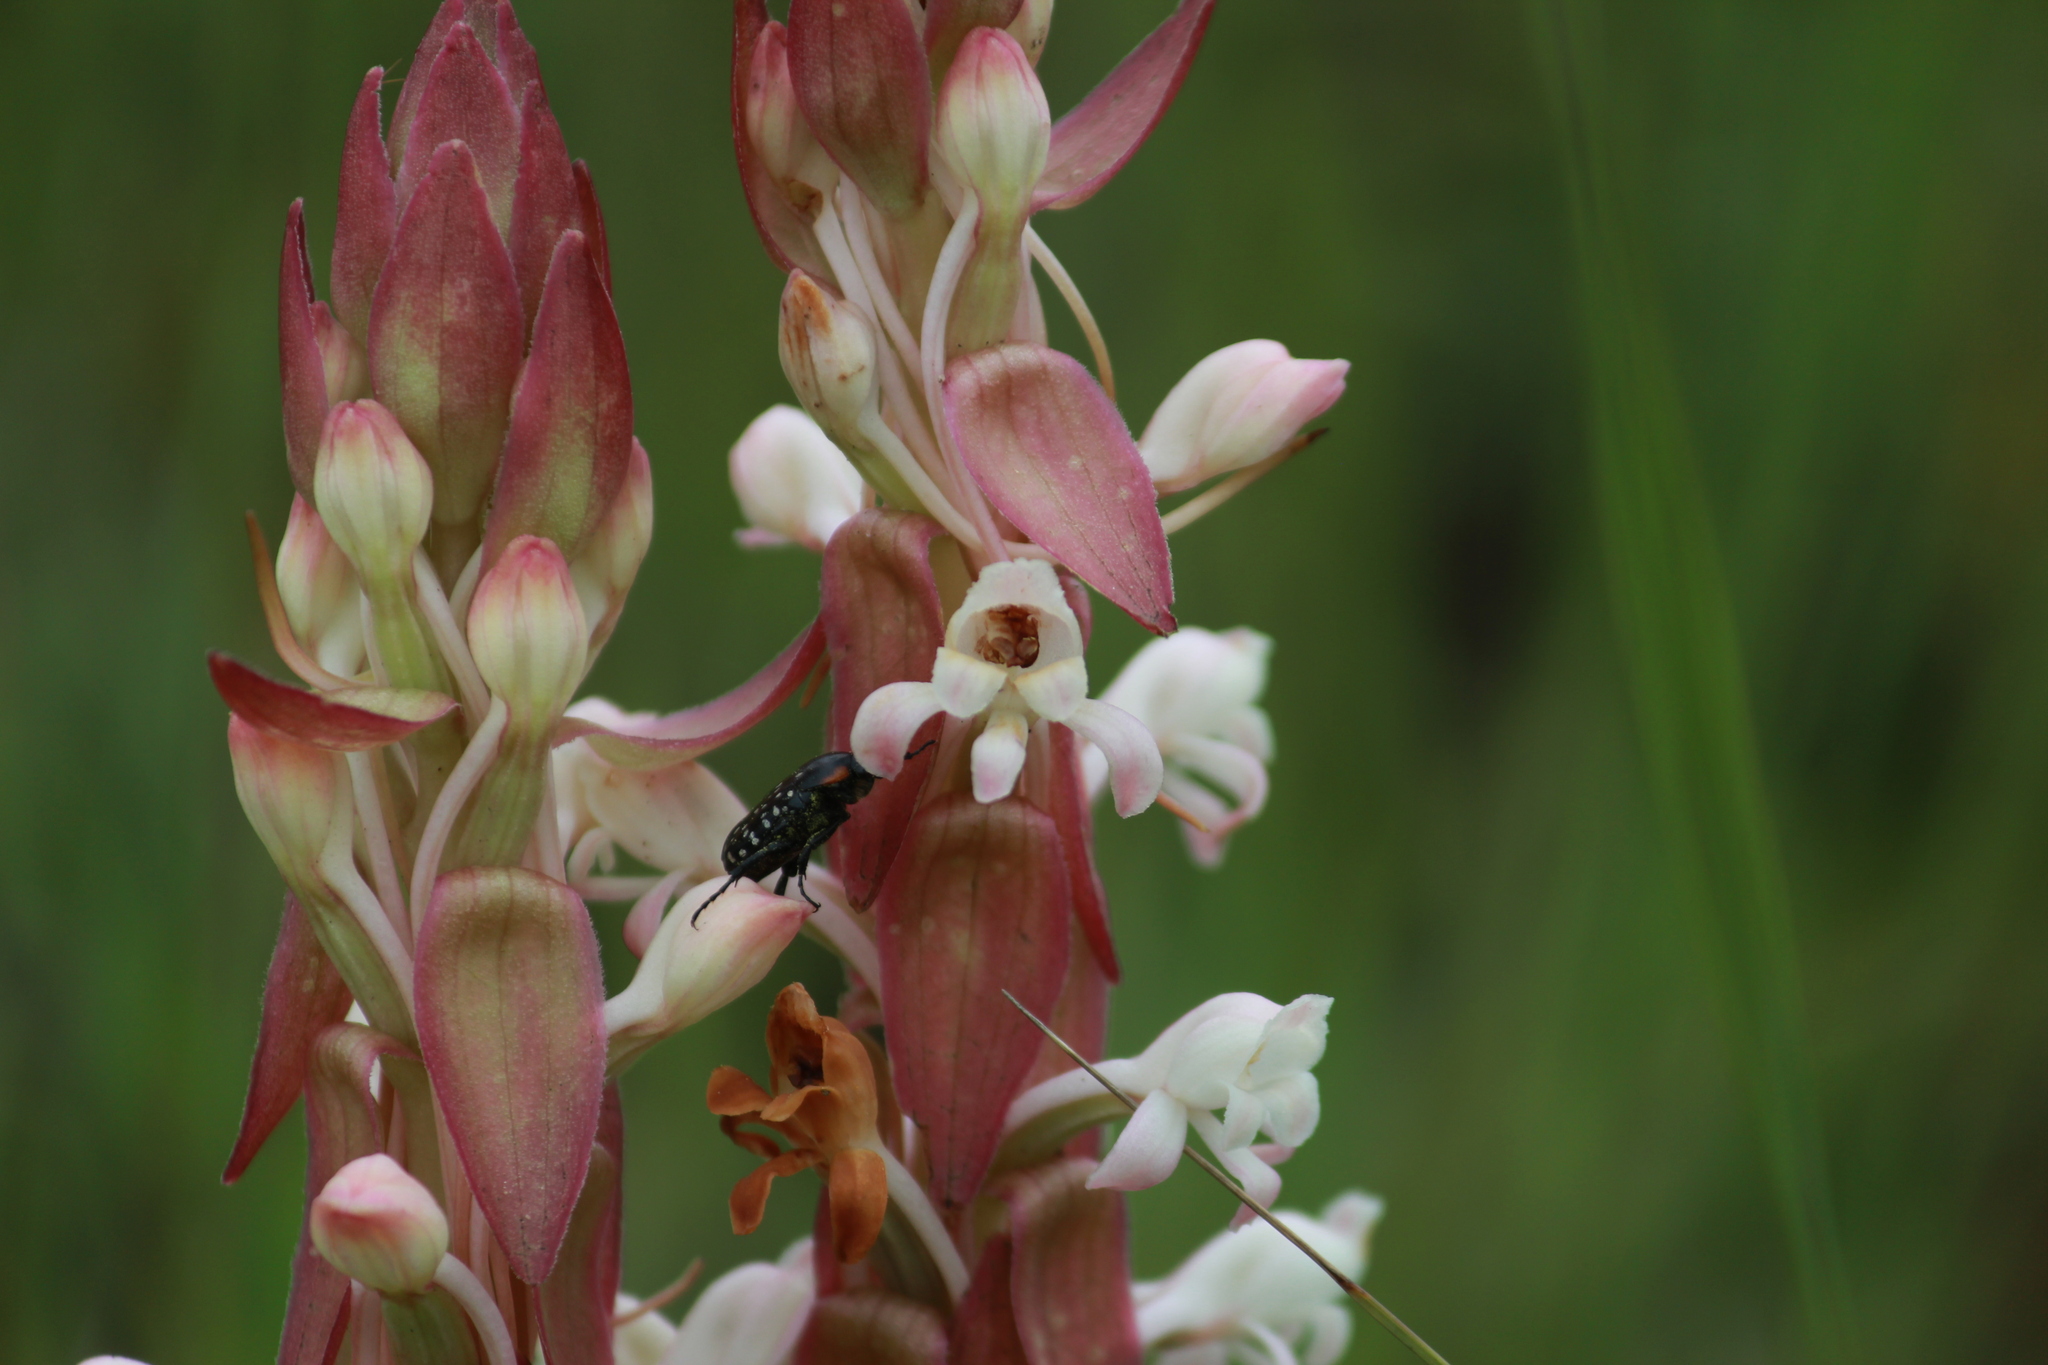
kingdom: Plantae
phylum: Tracheophyta
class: Liliopsida
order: Asparagales
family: Orchidaceae
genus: Satyrium
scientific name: Satyrium longicauda
